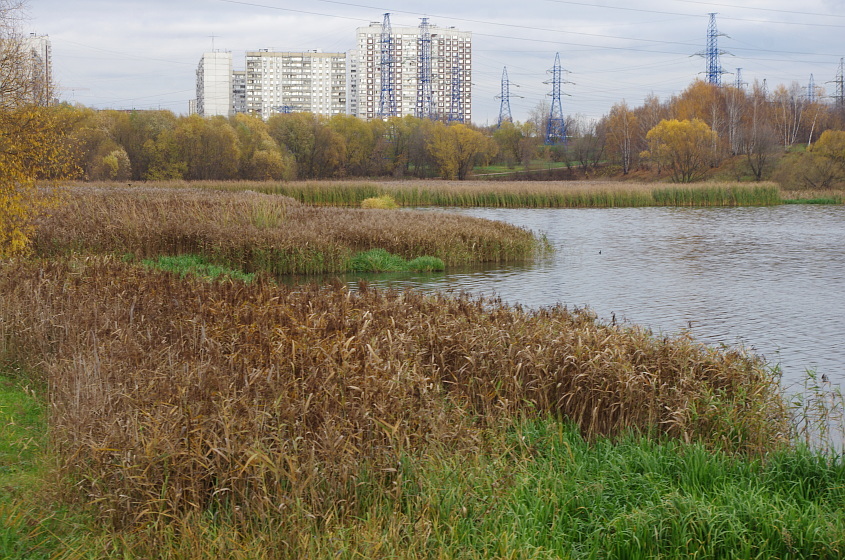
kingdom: Plantae
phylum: Tracheophyta
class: Liliopsida
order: Poales
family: Poaceae
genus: Phragmites
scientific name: Phragmites australis
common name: Common reed
